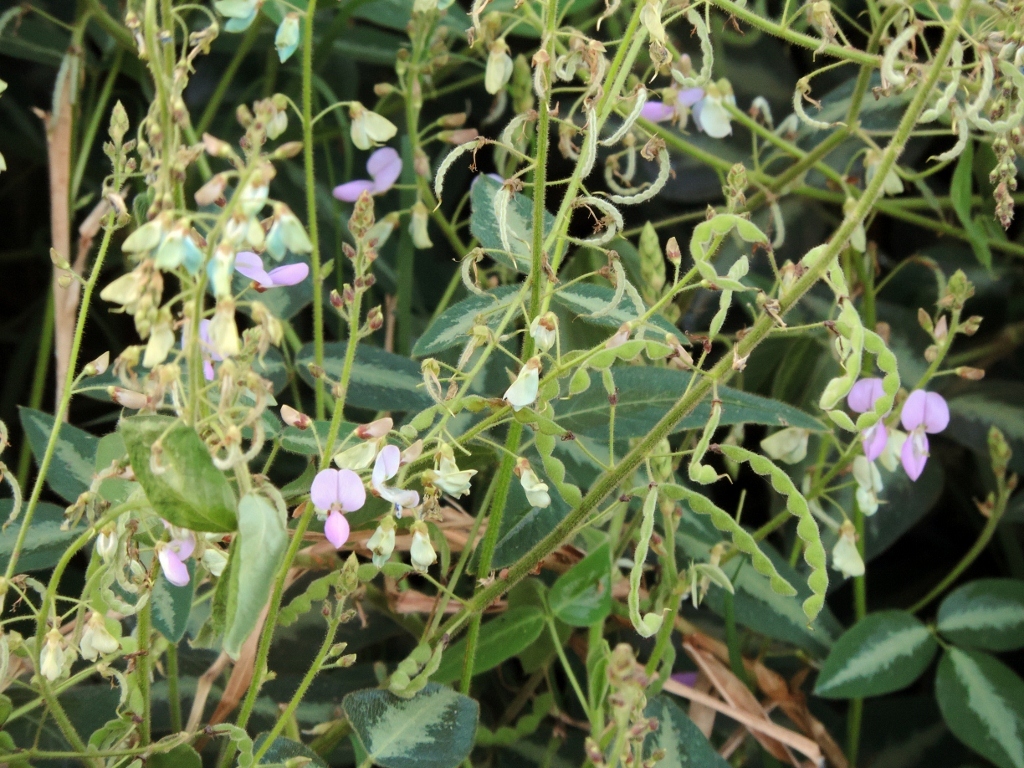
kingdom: Plantae
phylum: Tracheophyta
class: Magnoliopsida
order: Fabales
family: Fabaceae
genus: Desmodium
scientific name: Desmodium uncinatum
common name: Silverleaf desmodium
